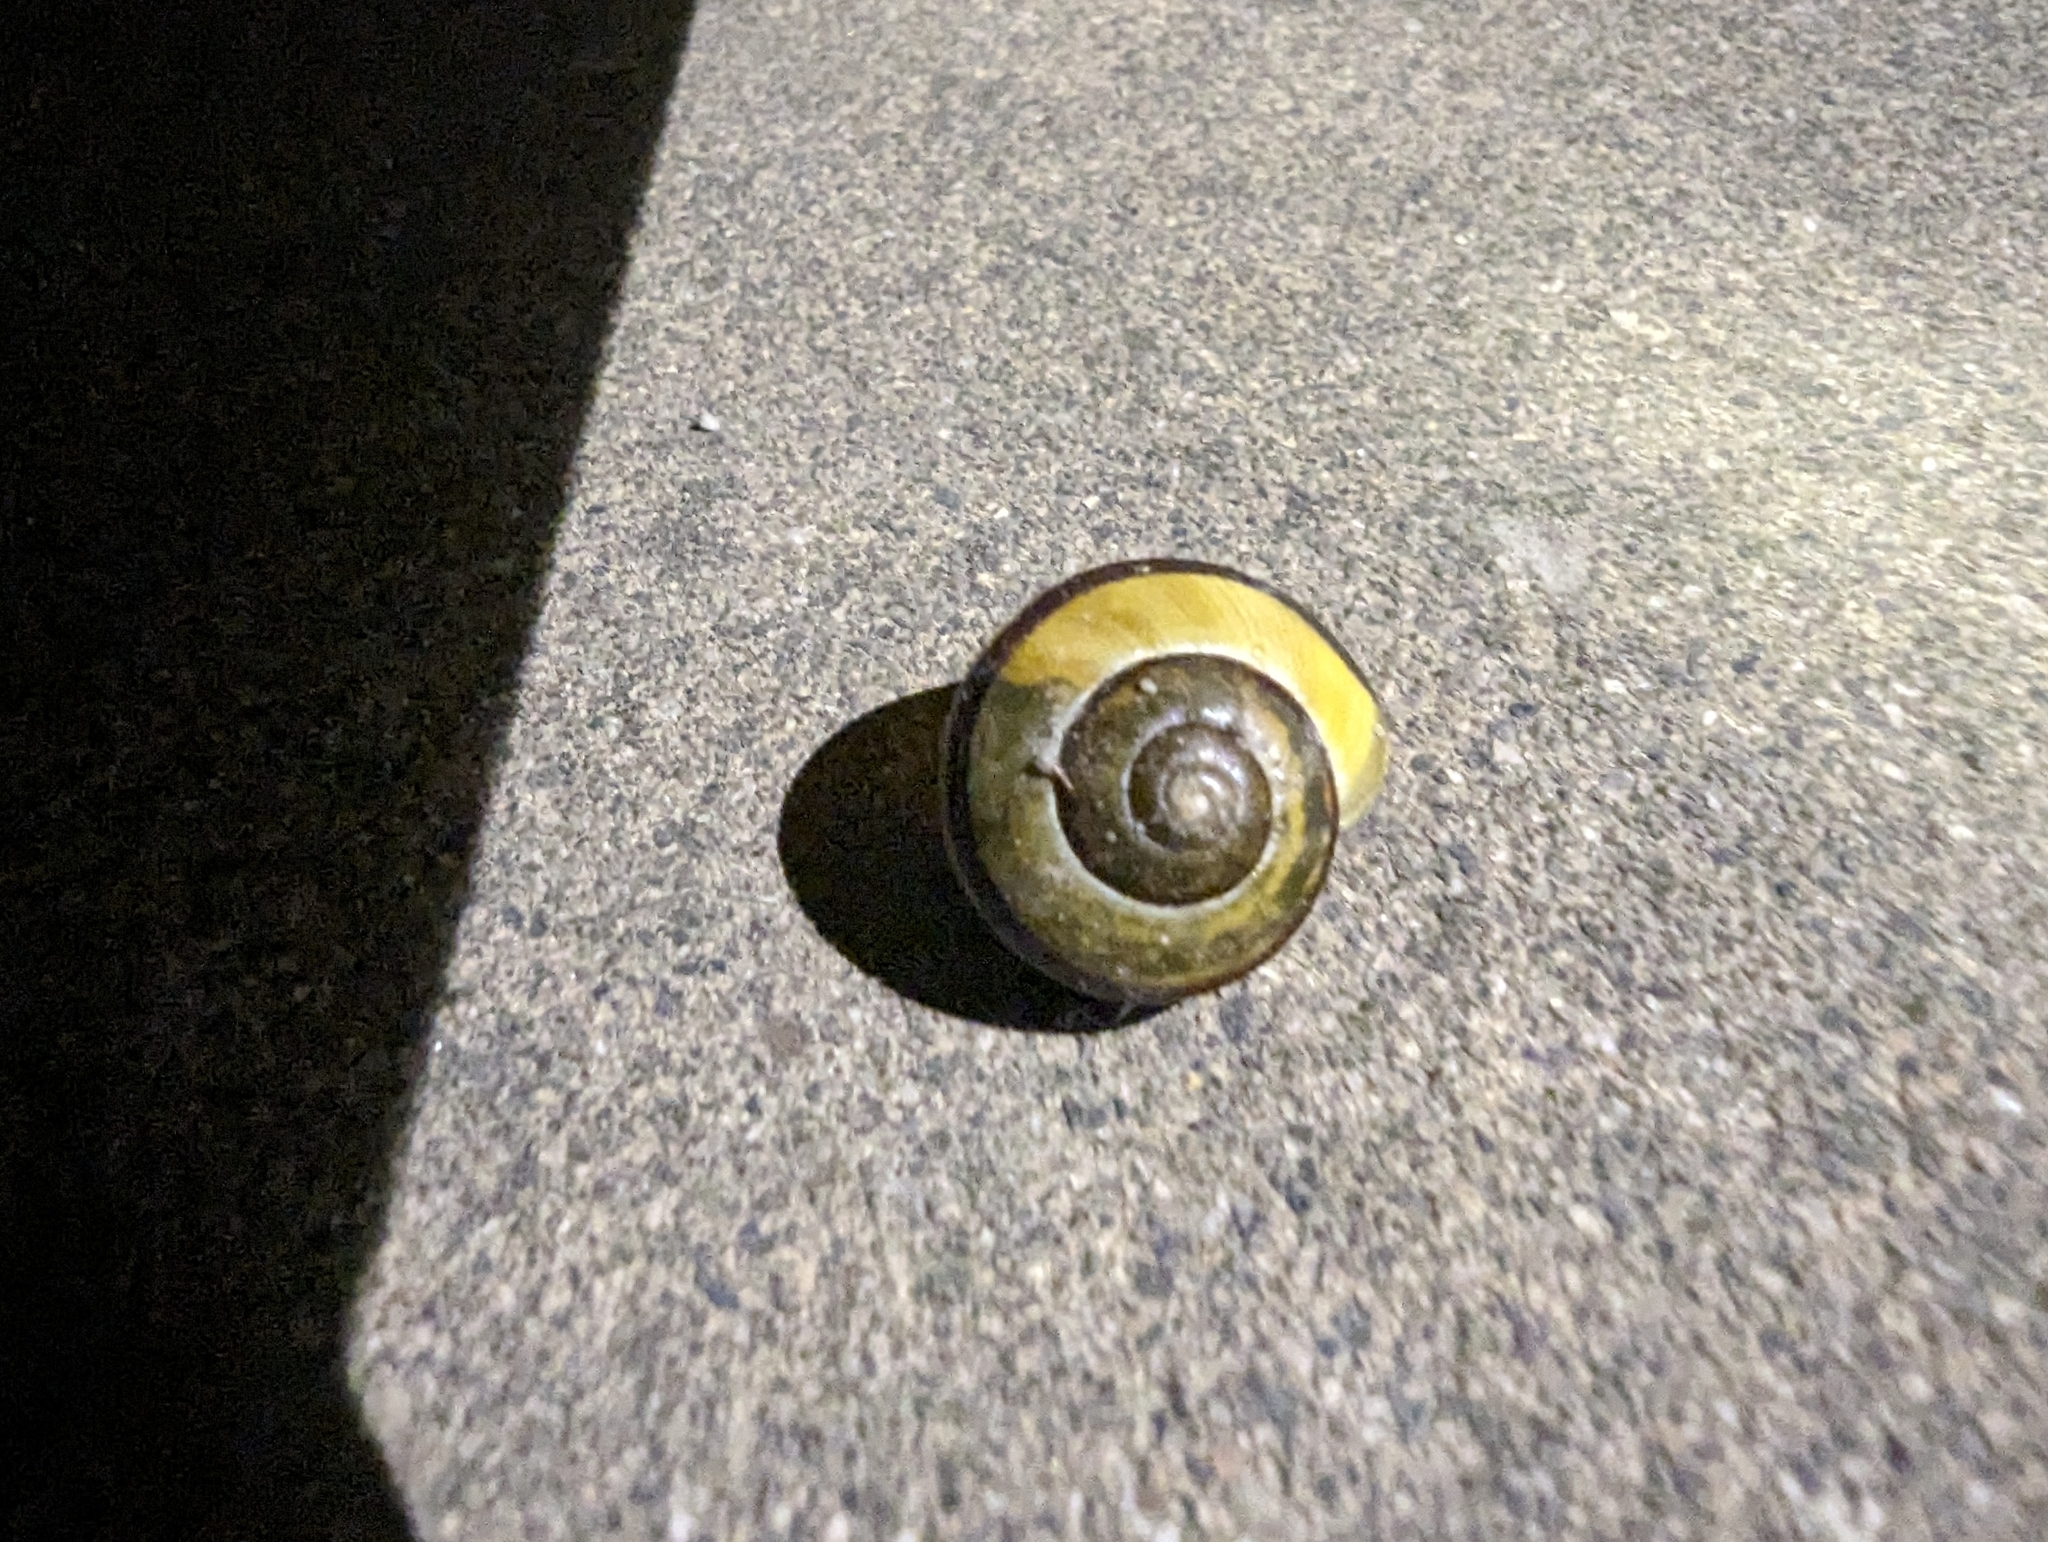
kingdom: Animalia
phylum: Mollusca
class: Gastropoda
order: Stylommatophora
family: Helicidae
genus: Cepaea
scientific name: Cepaea nemoralis
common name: Grovesnail
